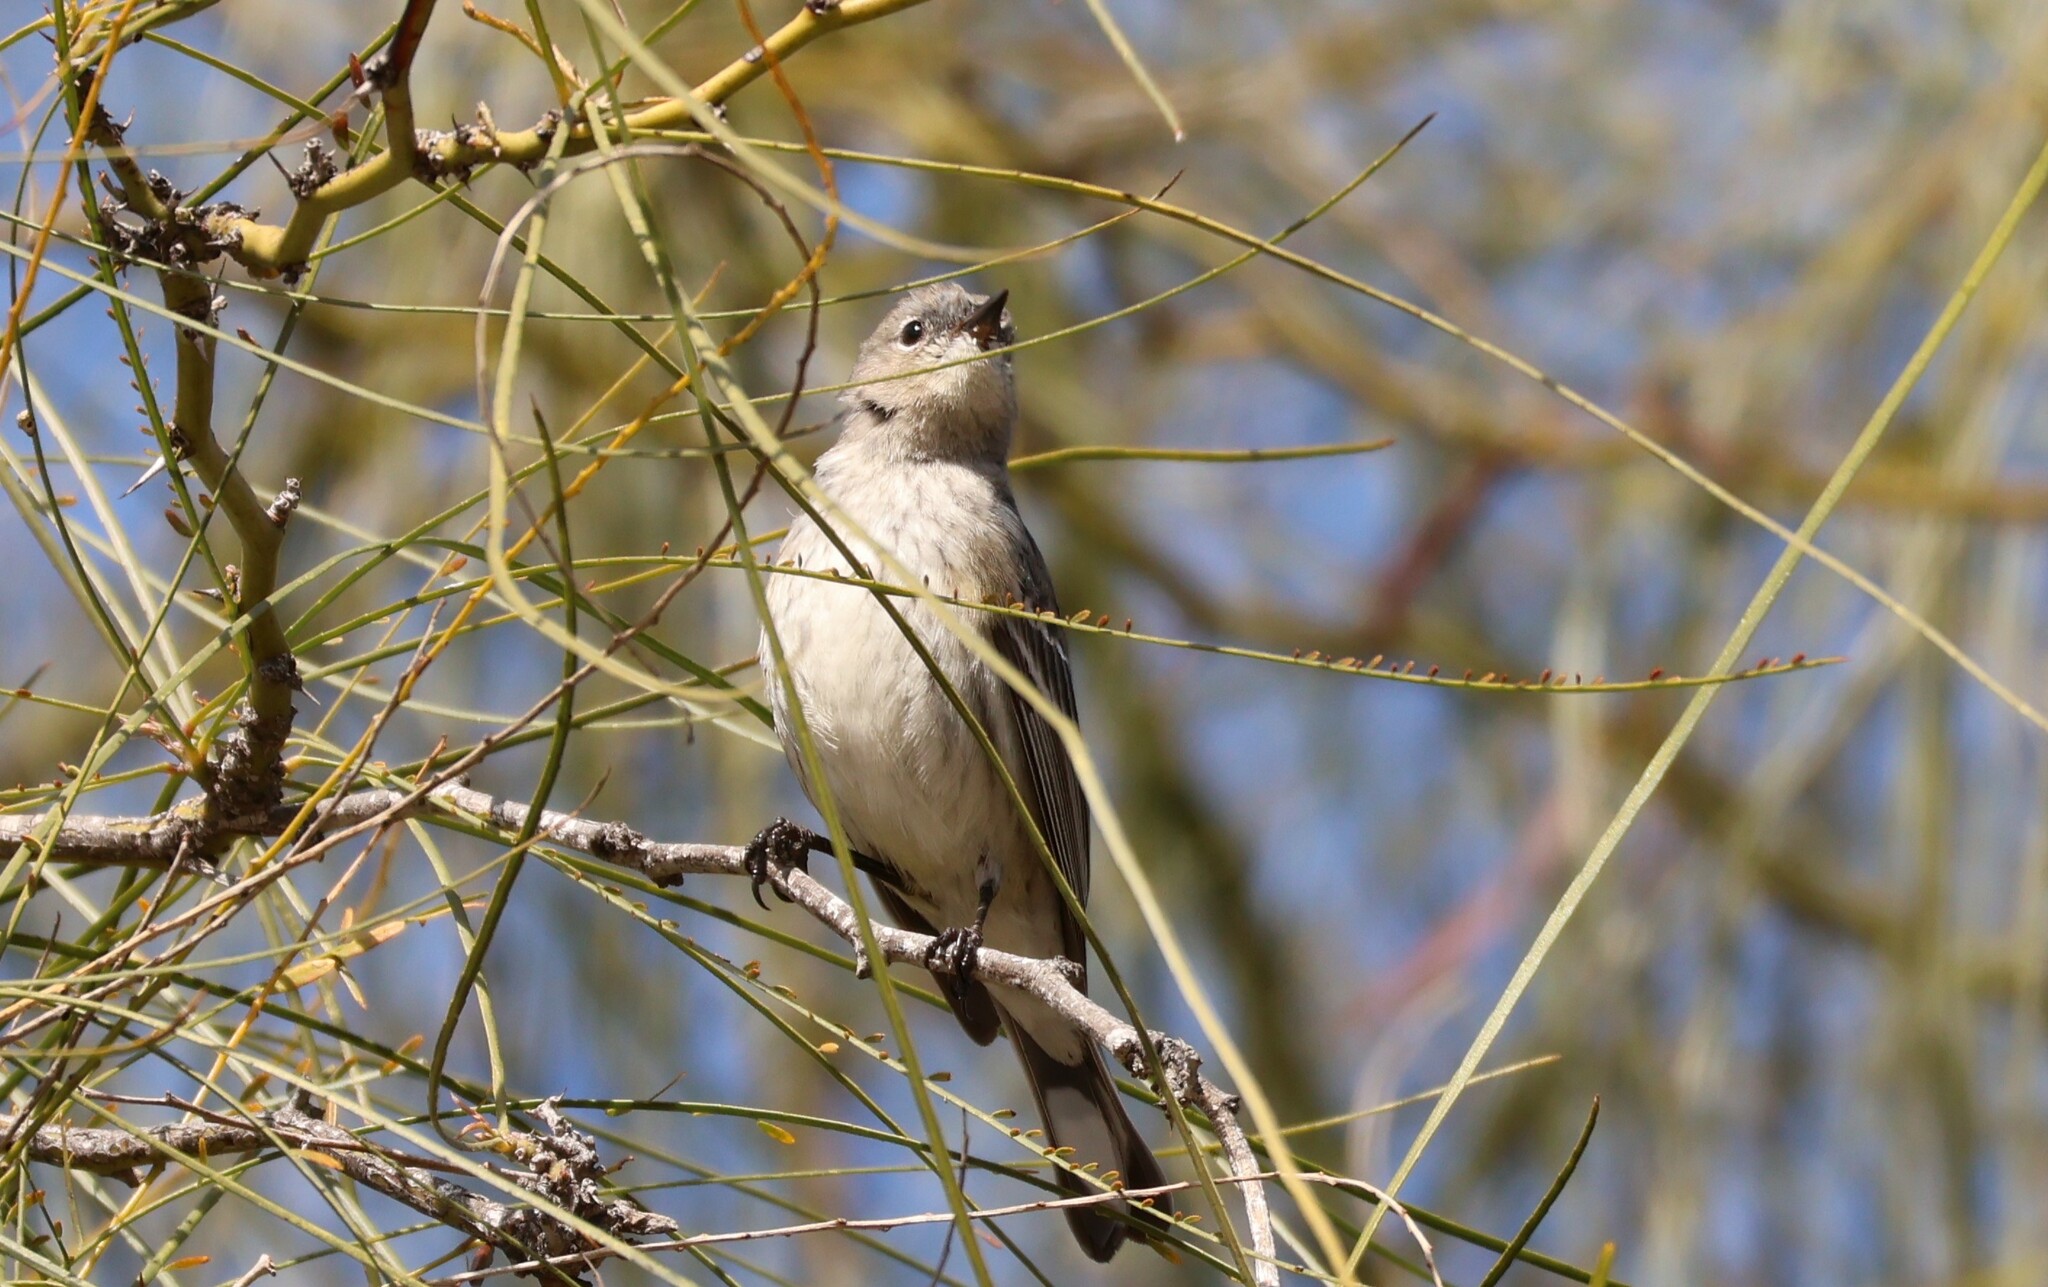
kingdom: Animalia
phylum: Chordata
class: Aves
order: Passeriformes
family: Parulidae
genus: Setophaga
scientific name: Setophaga coronata
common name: Myrtle warbler
